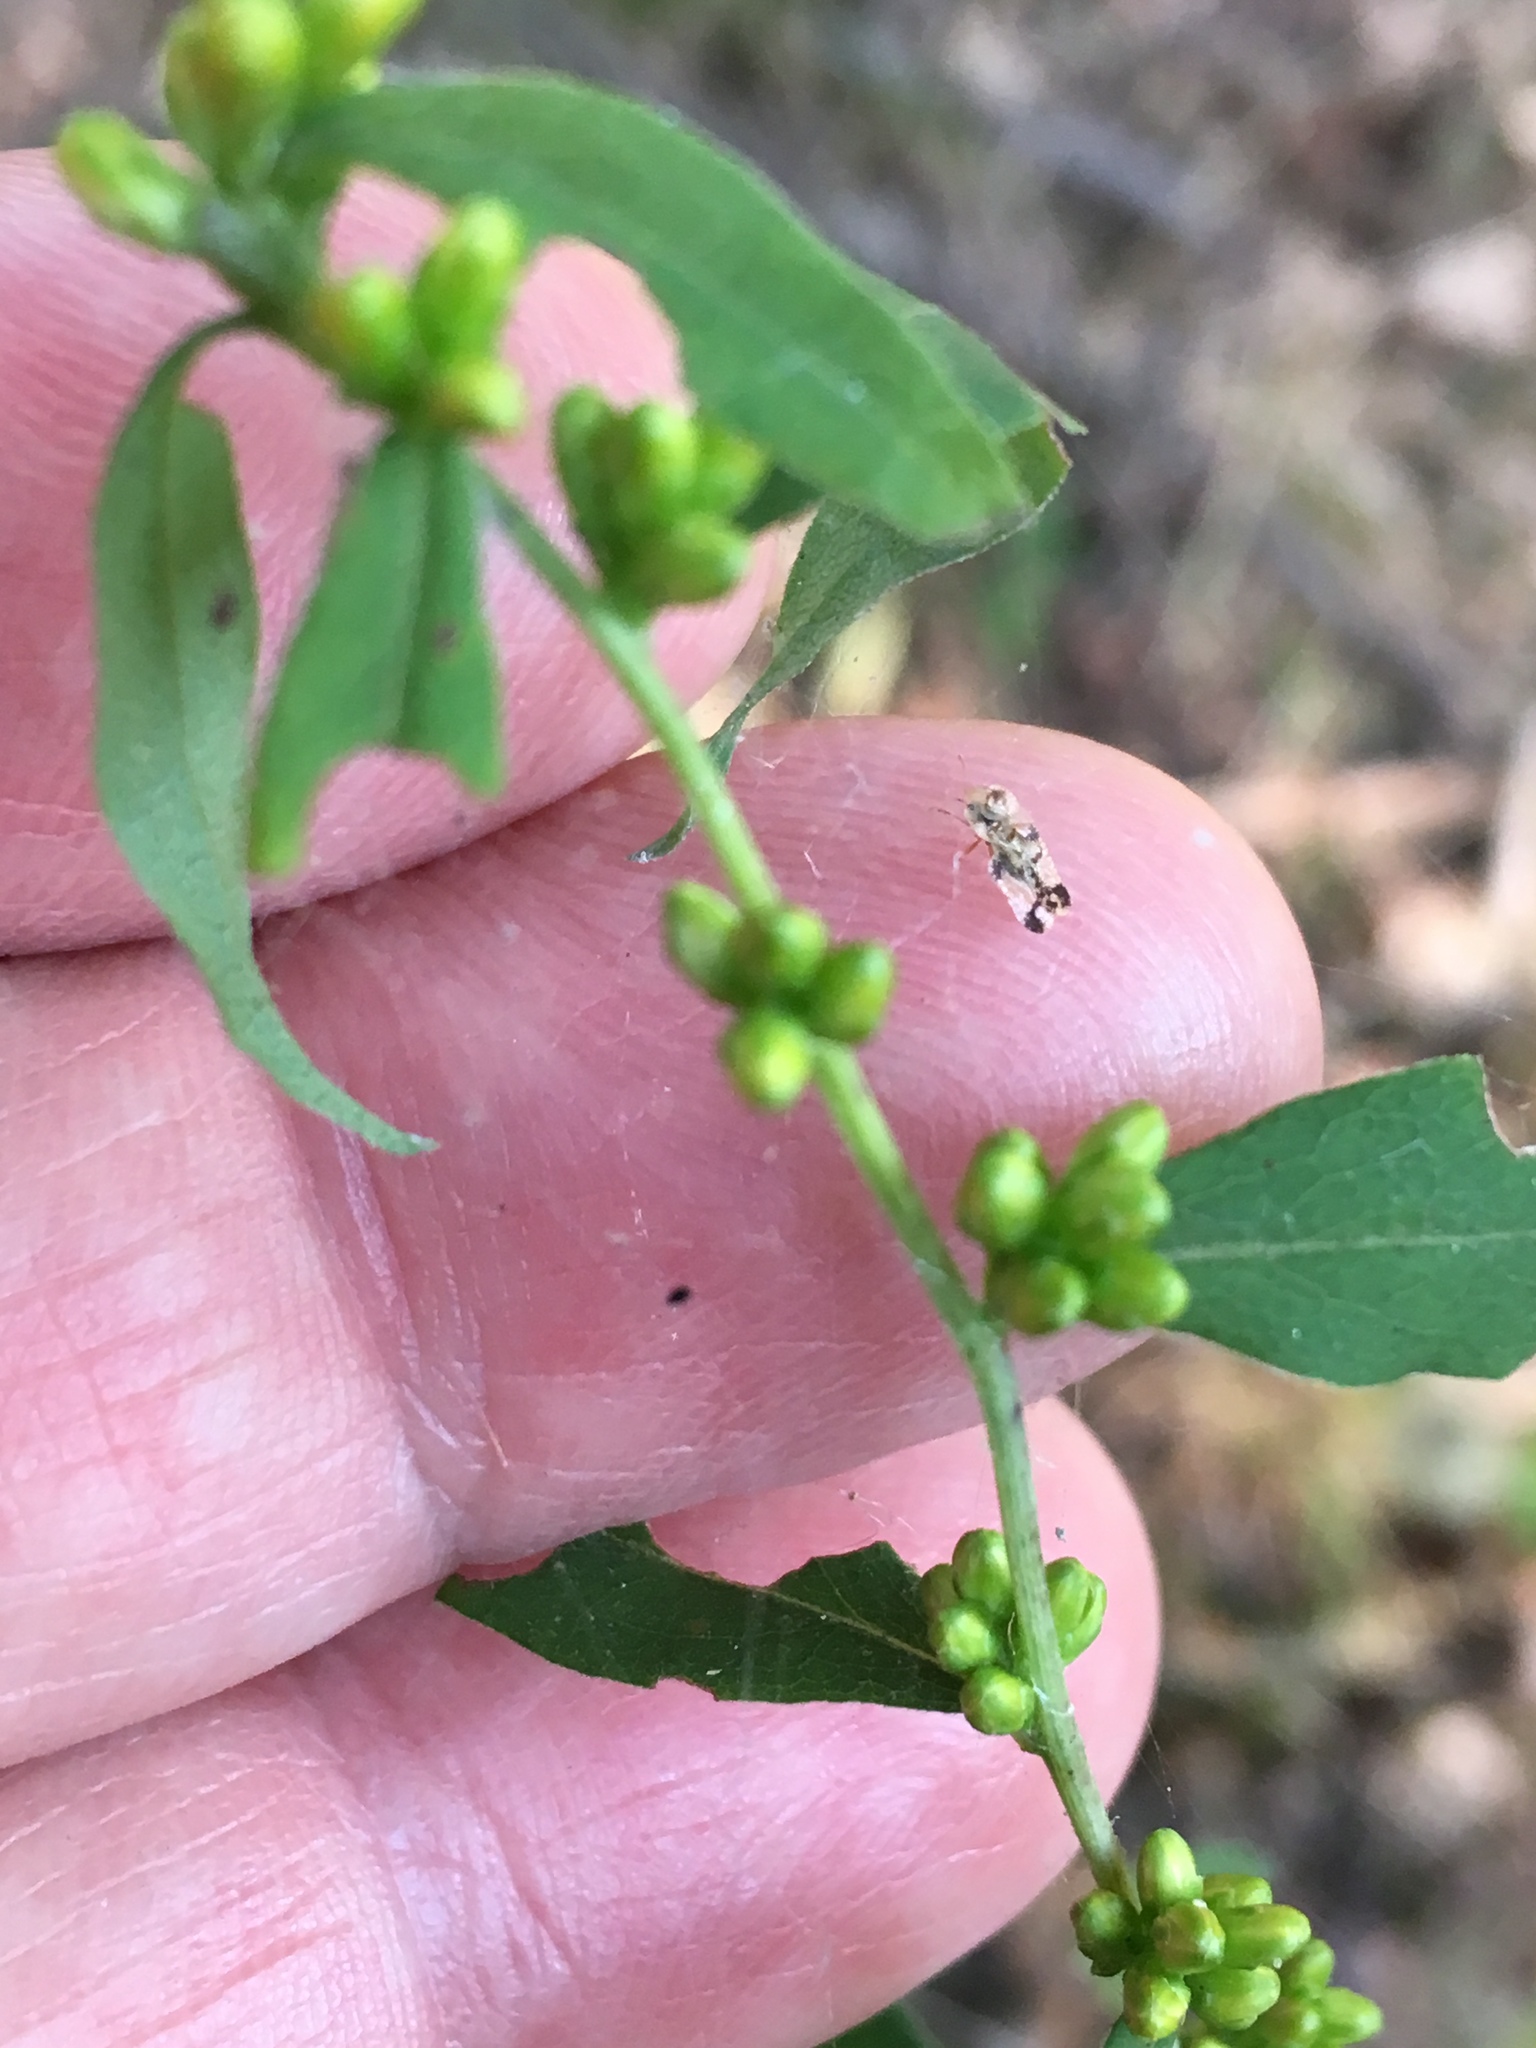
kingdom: Plantae
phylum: Tracheophyta
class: Magnoliopsida
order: Asterales
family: Asteraceae
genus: Solidago
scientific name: Solidago caesia
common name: Woodland goldenrod
